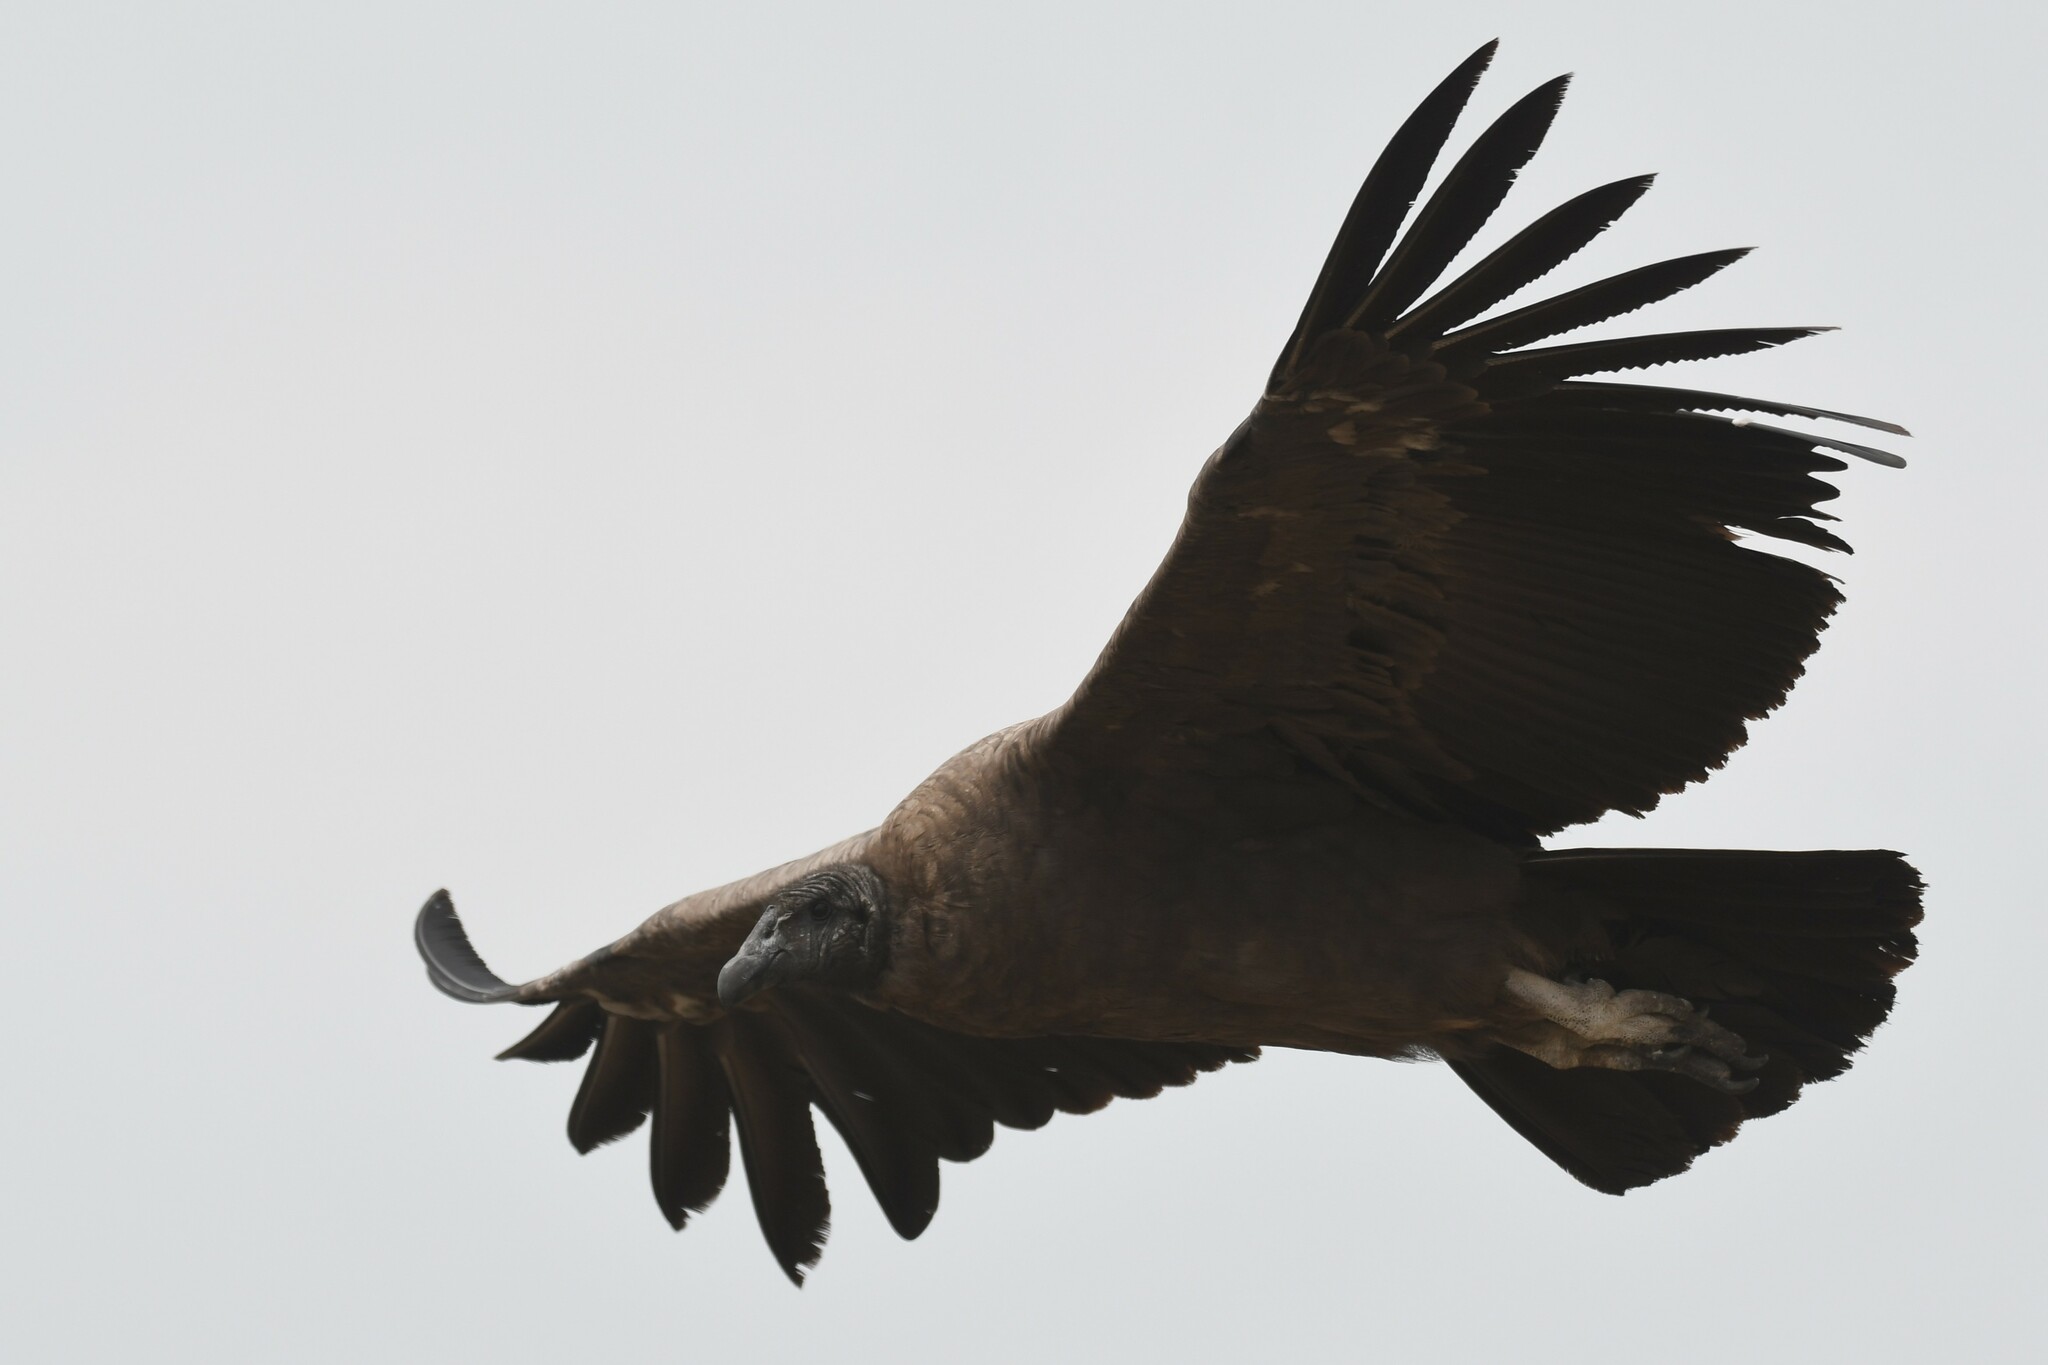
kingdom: Animalia
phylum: Chordata
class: Aves
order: Accipitriformes
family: Cathartidae
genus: Vultur
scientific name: Vultur gryphus
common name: Andean condor
